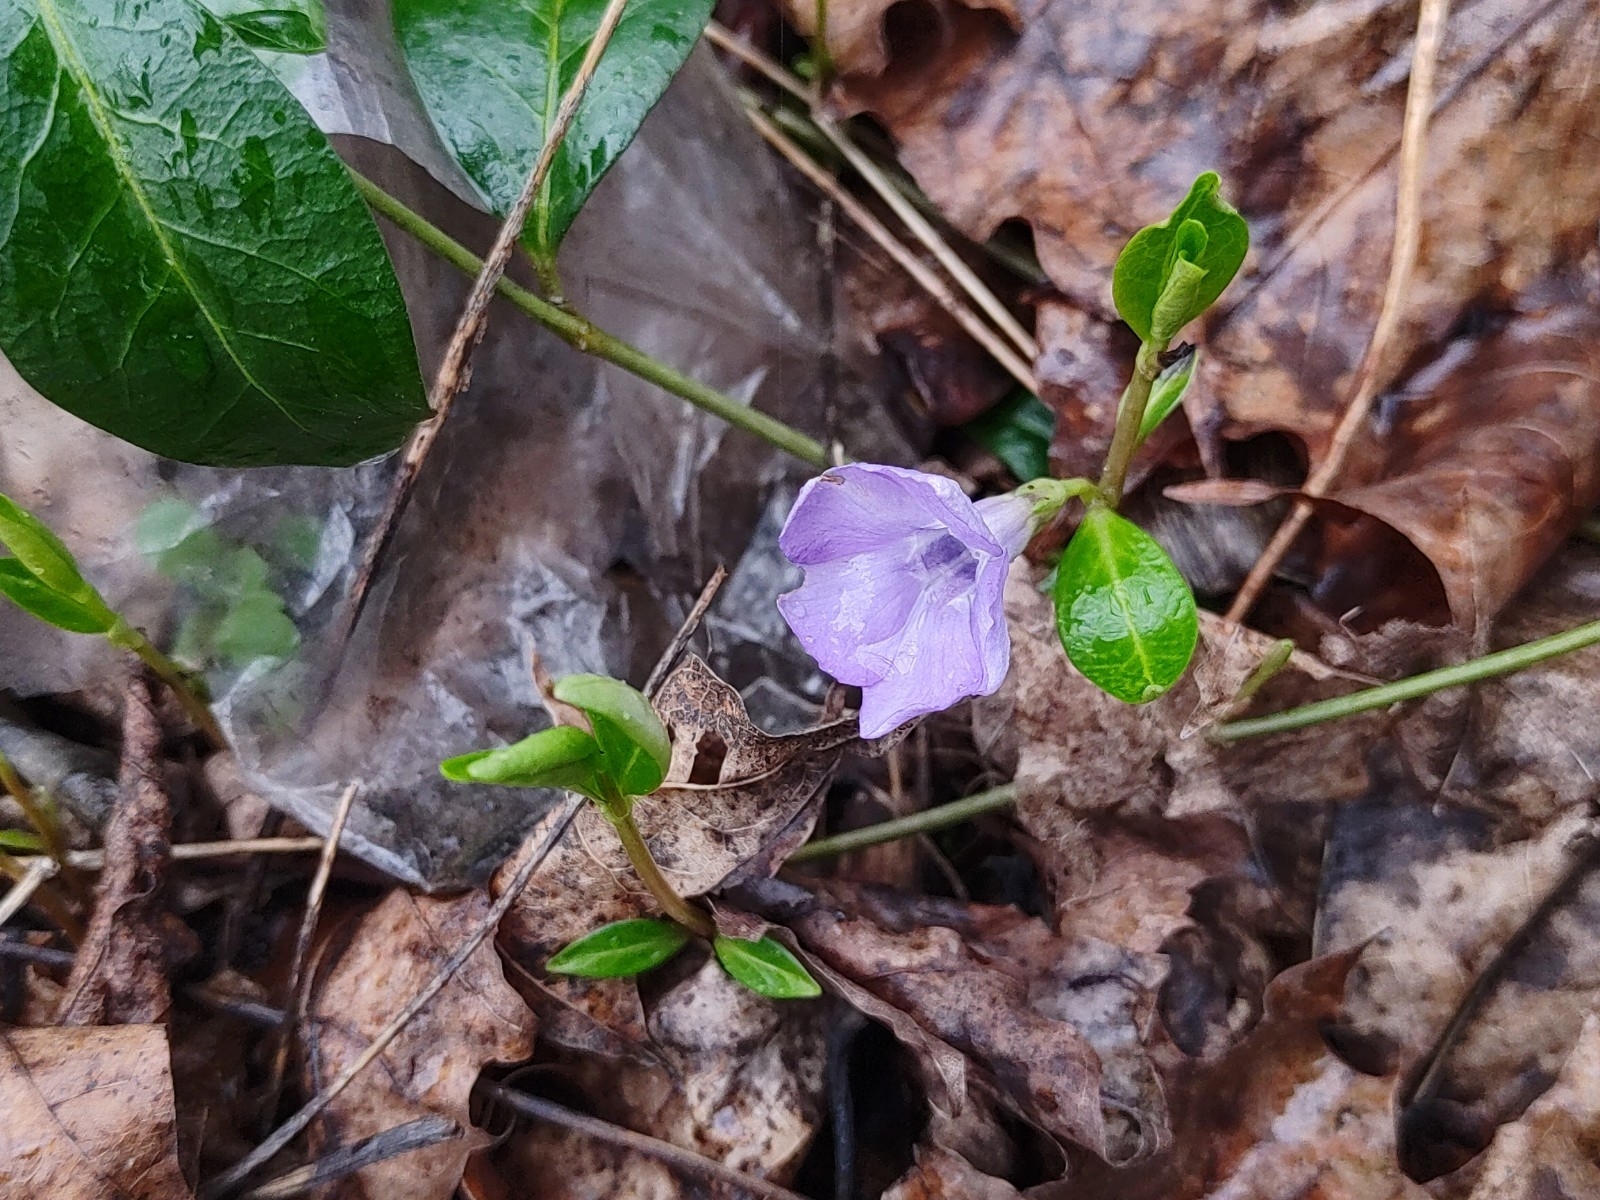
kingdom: Plantae
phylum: Tracheophyta
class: Magnoliopsida
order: Gentianales
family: Apocynaceae
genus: Vinca
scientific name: Vinca minor
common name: Lesser periwinkle
